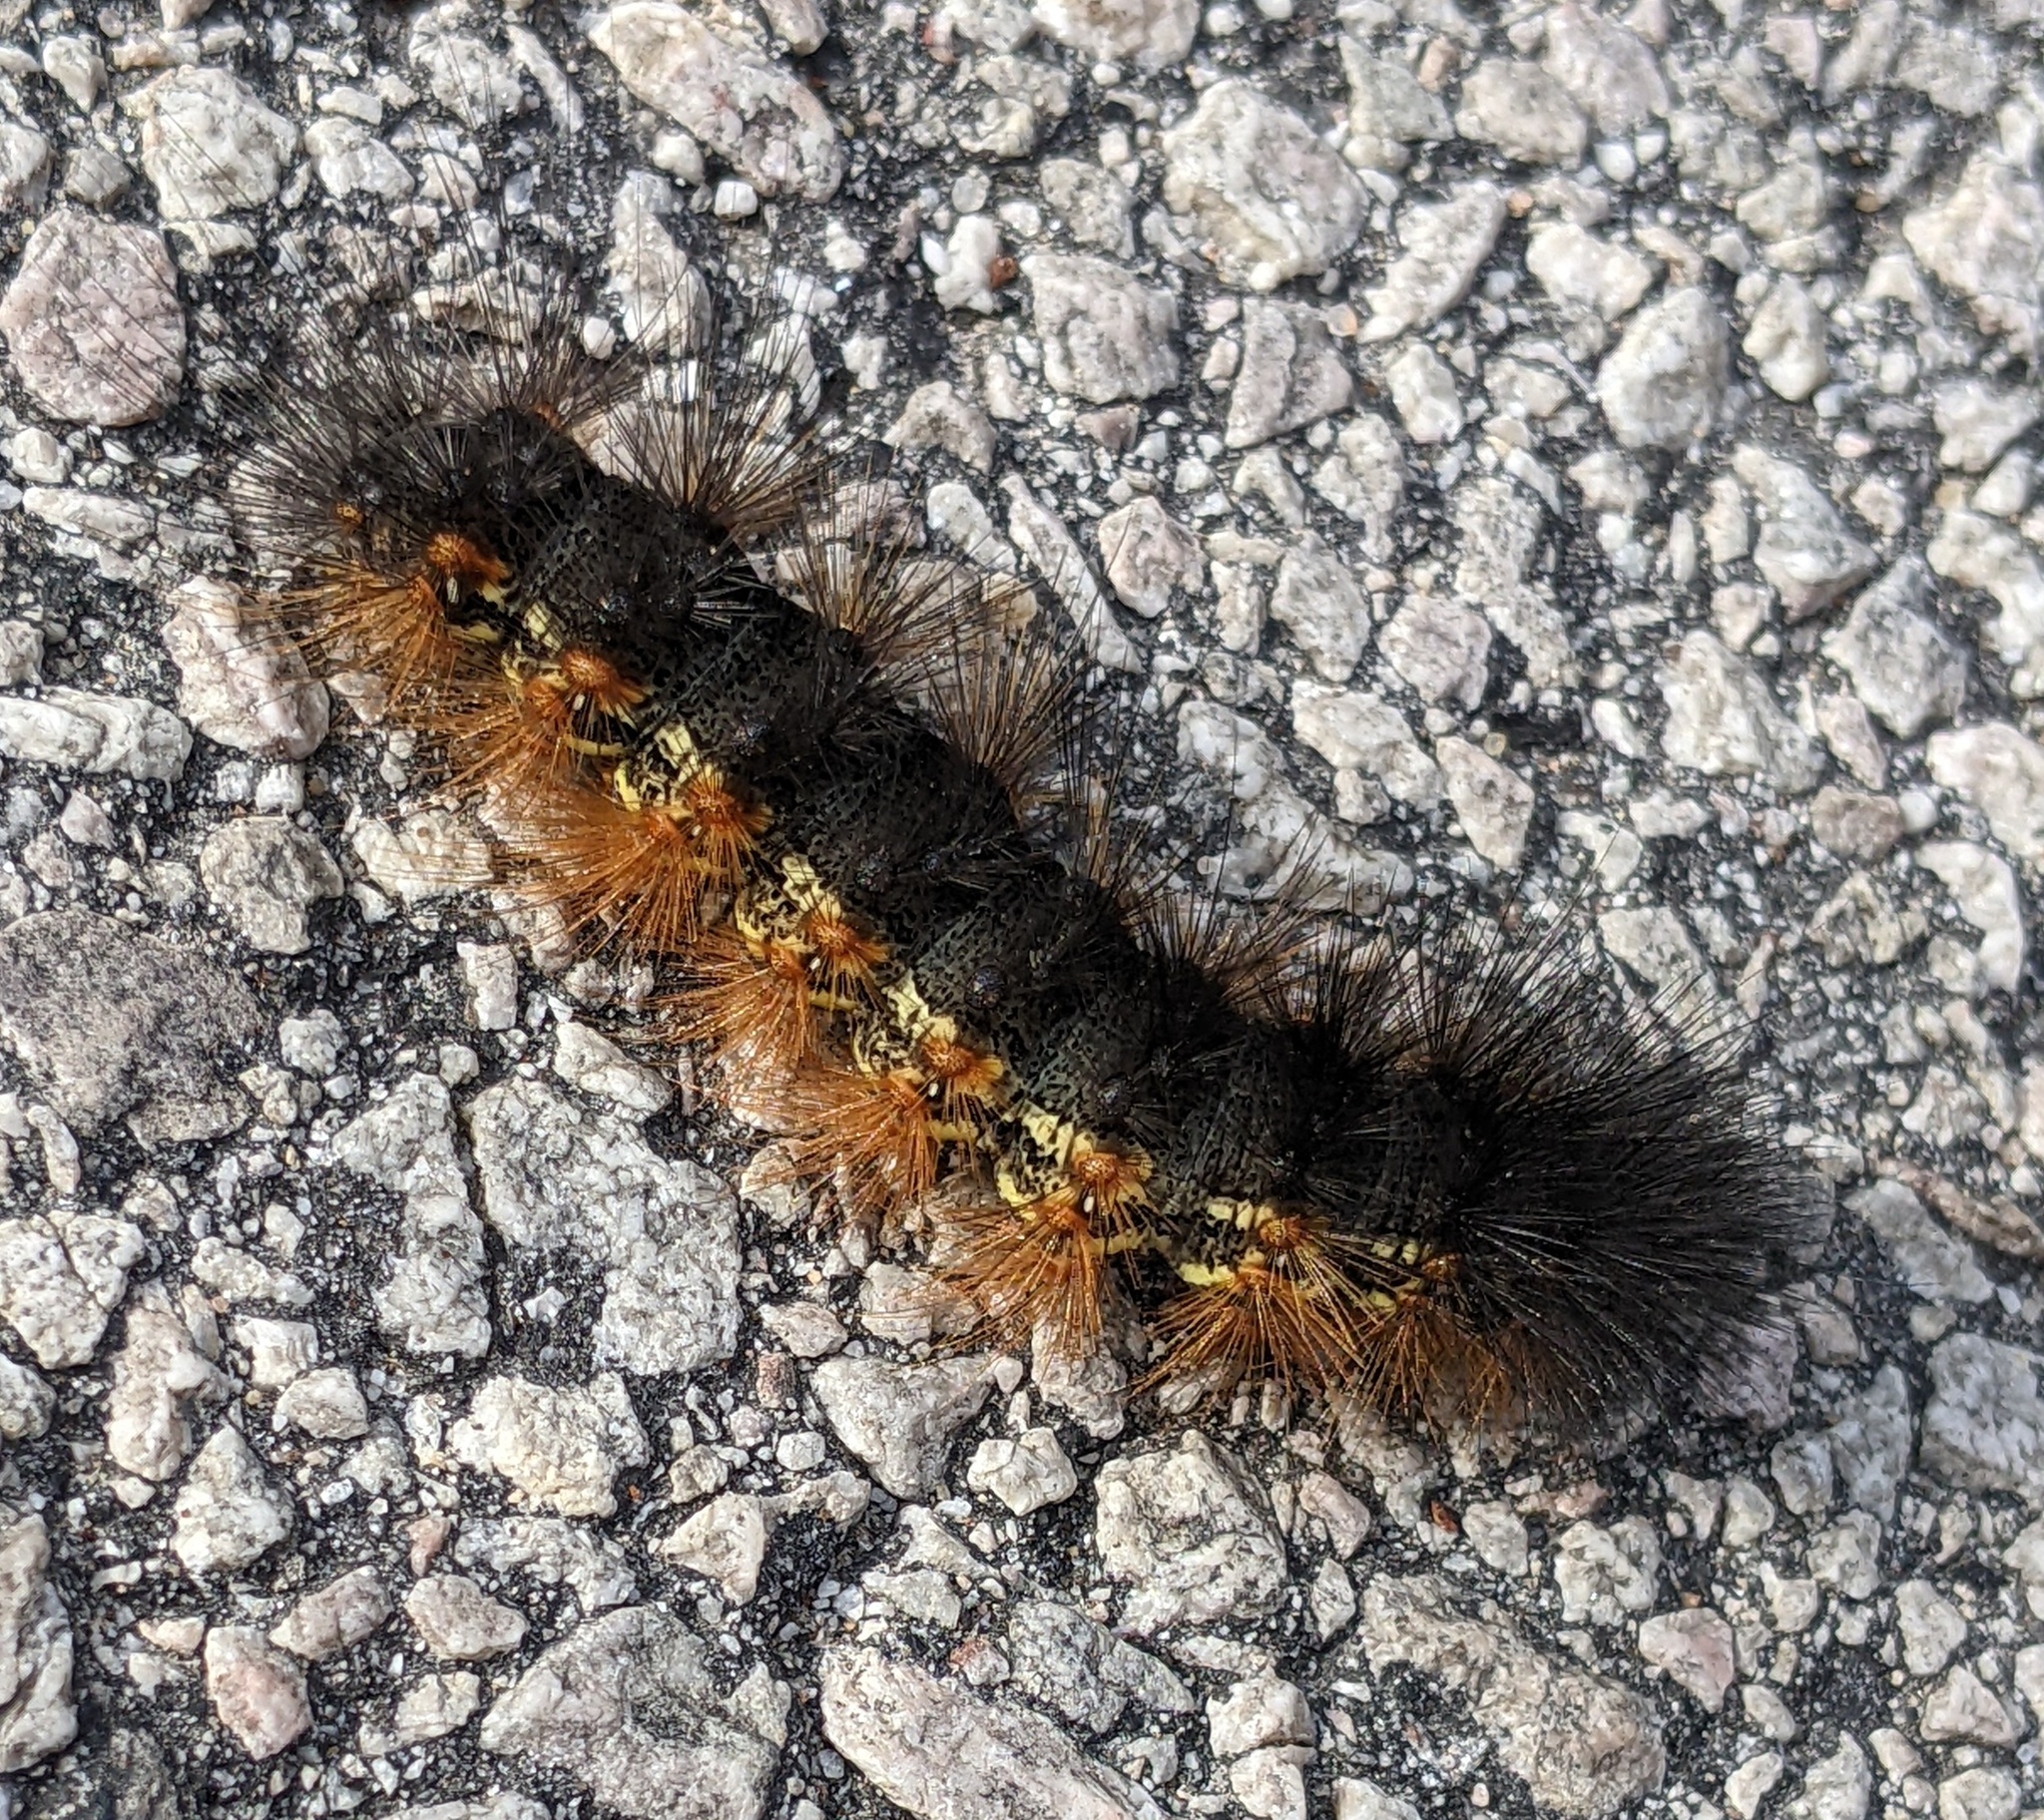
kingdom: Animalia
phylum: Arthropoda
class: Insecta
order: Lepidoptera
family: Erebidae
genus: Estigmene
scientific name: Estigmene acrea
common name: Salt marsh moth
